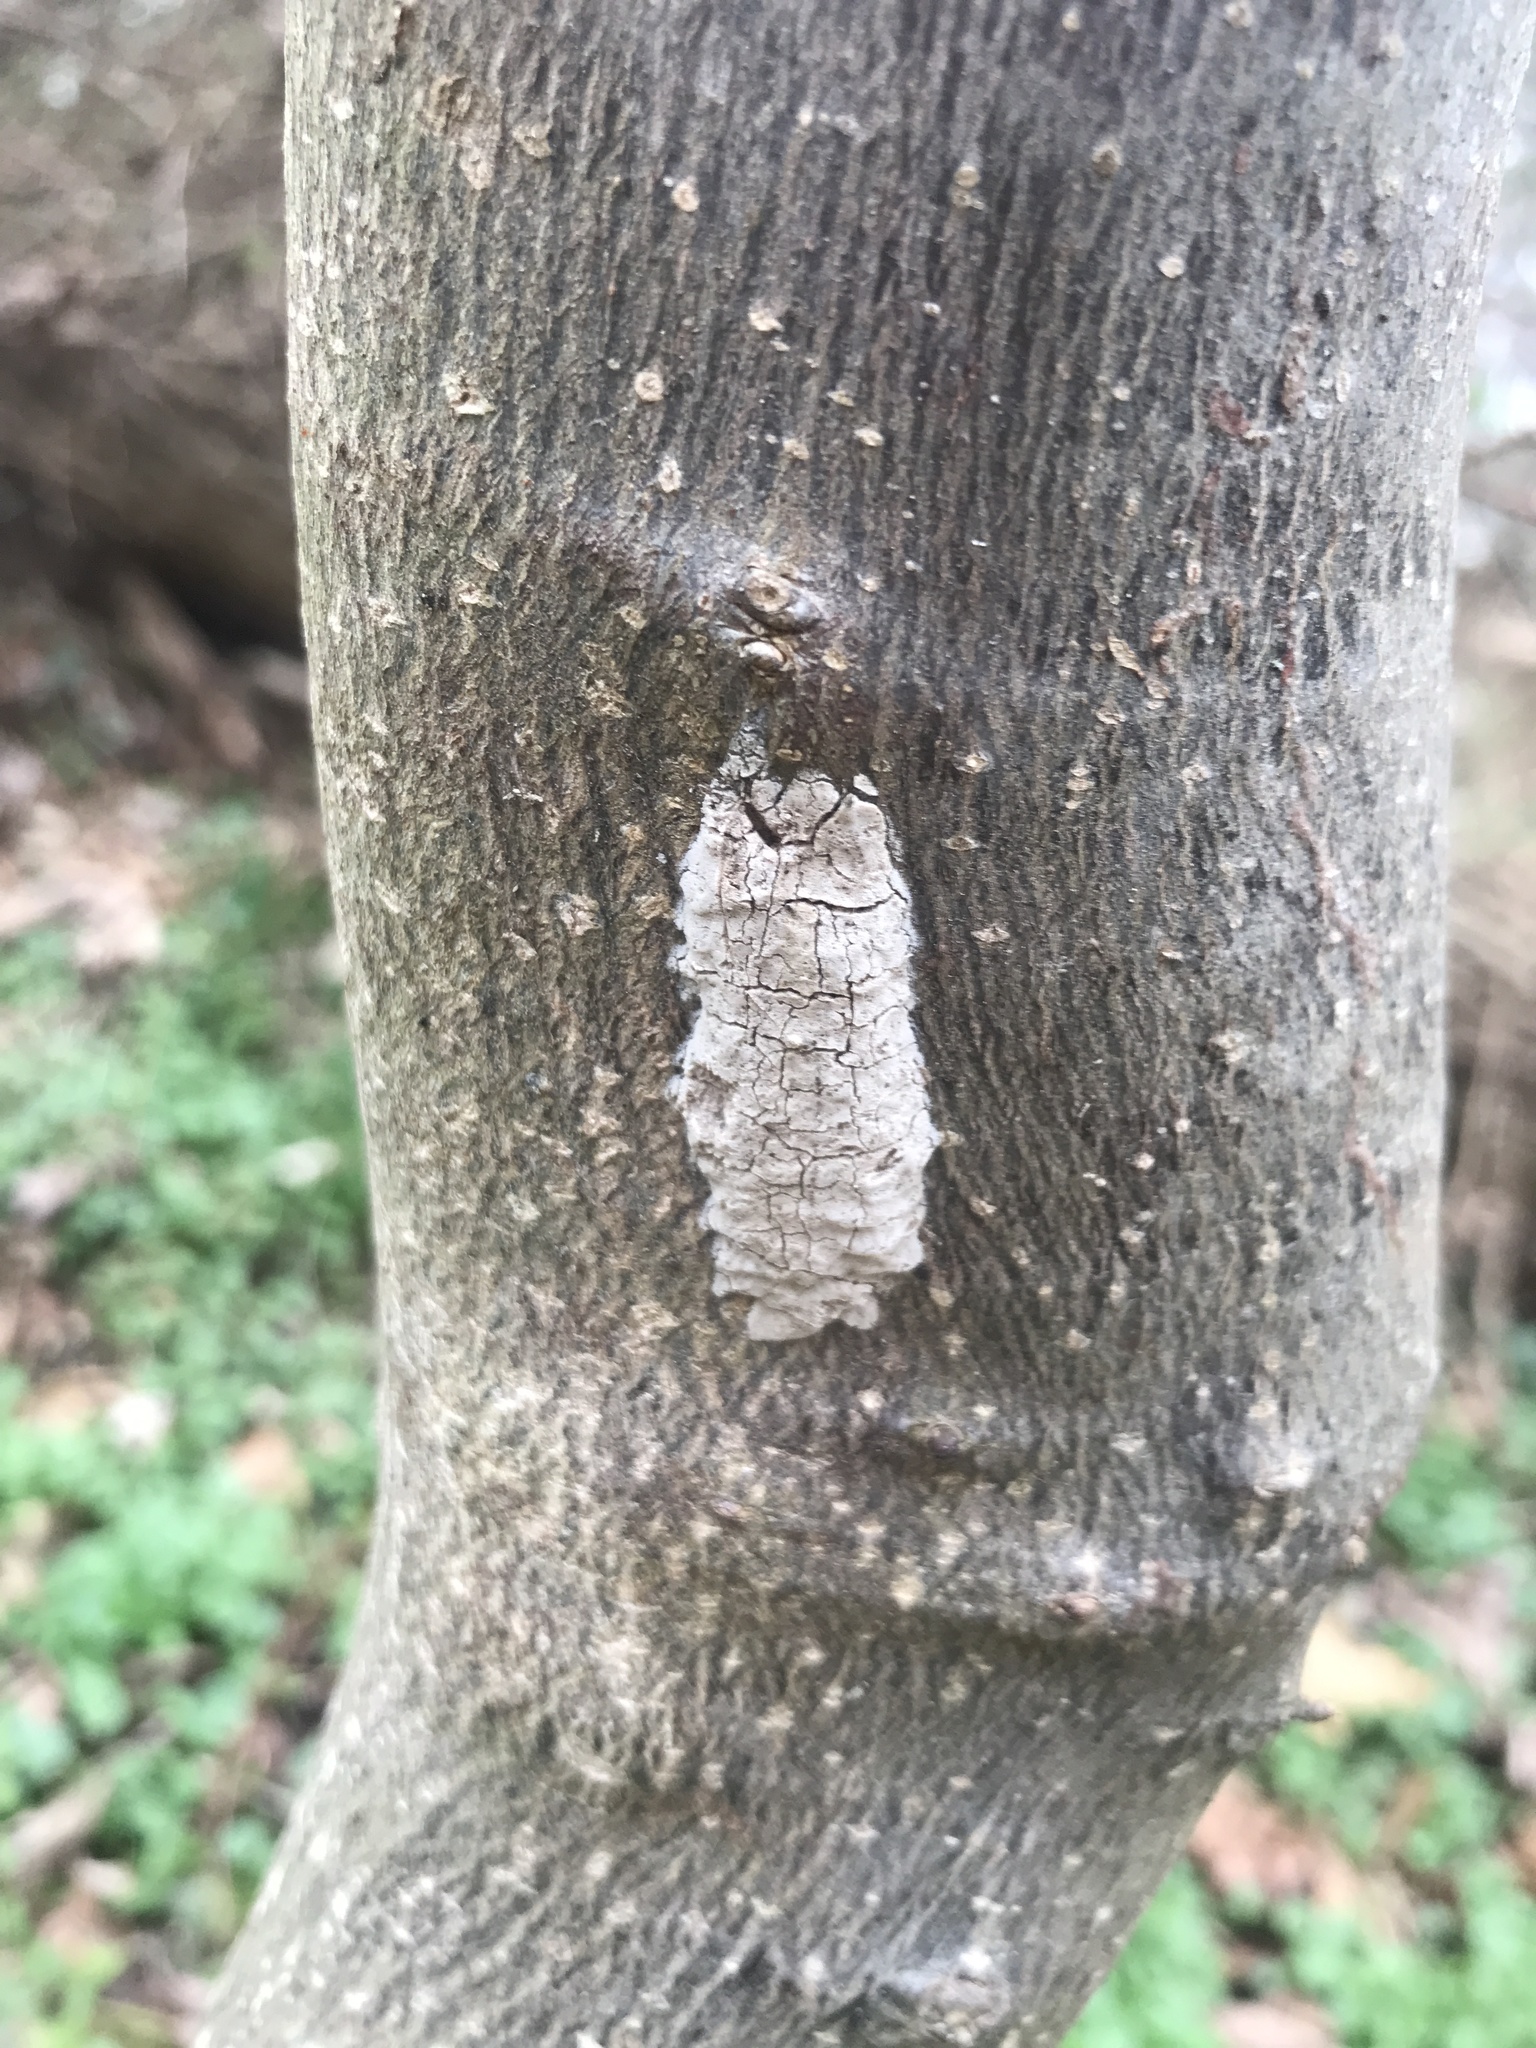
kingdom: Animalia
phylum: Arthropoda
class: Insecta
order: Hemiptera
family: Fulgoridae
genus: Lycorma
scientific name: Lycorma delicatula
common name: Spotted lanternfly
